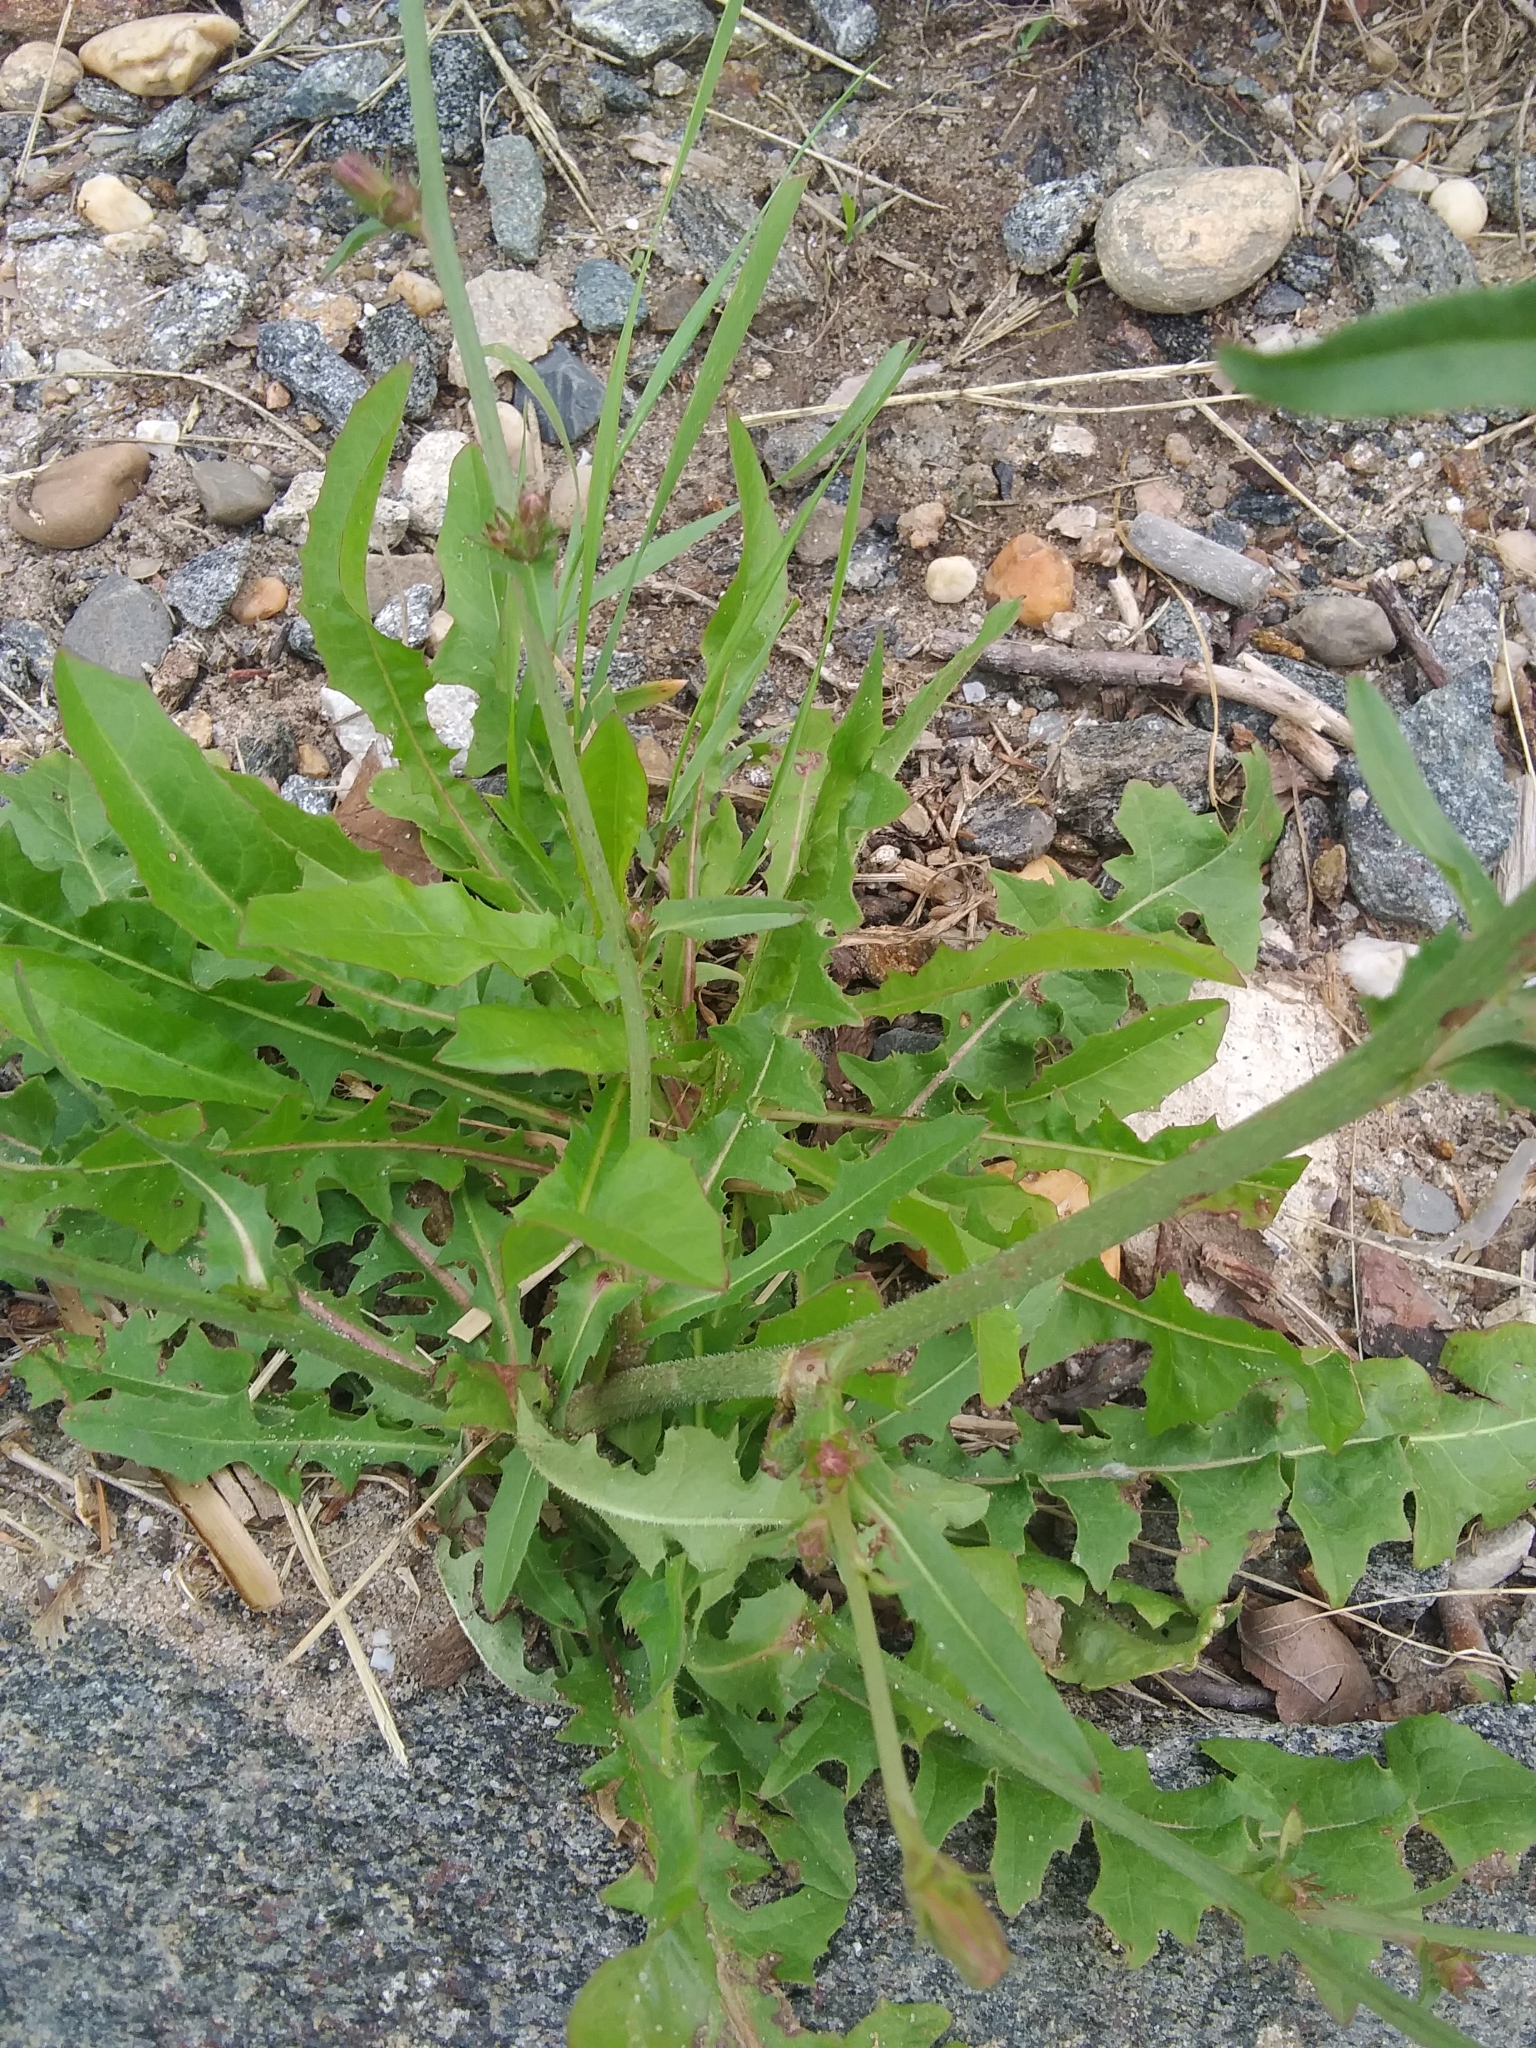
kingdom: Plantae
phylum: Tracheophyta
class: Magnoliopsida
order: Asterales
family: Asteraceae
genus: Cichorium
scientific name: Cichorium intybus
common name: Chicory
